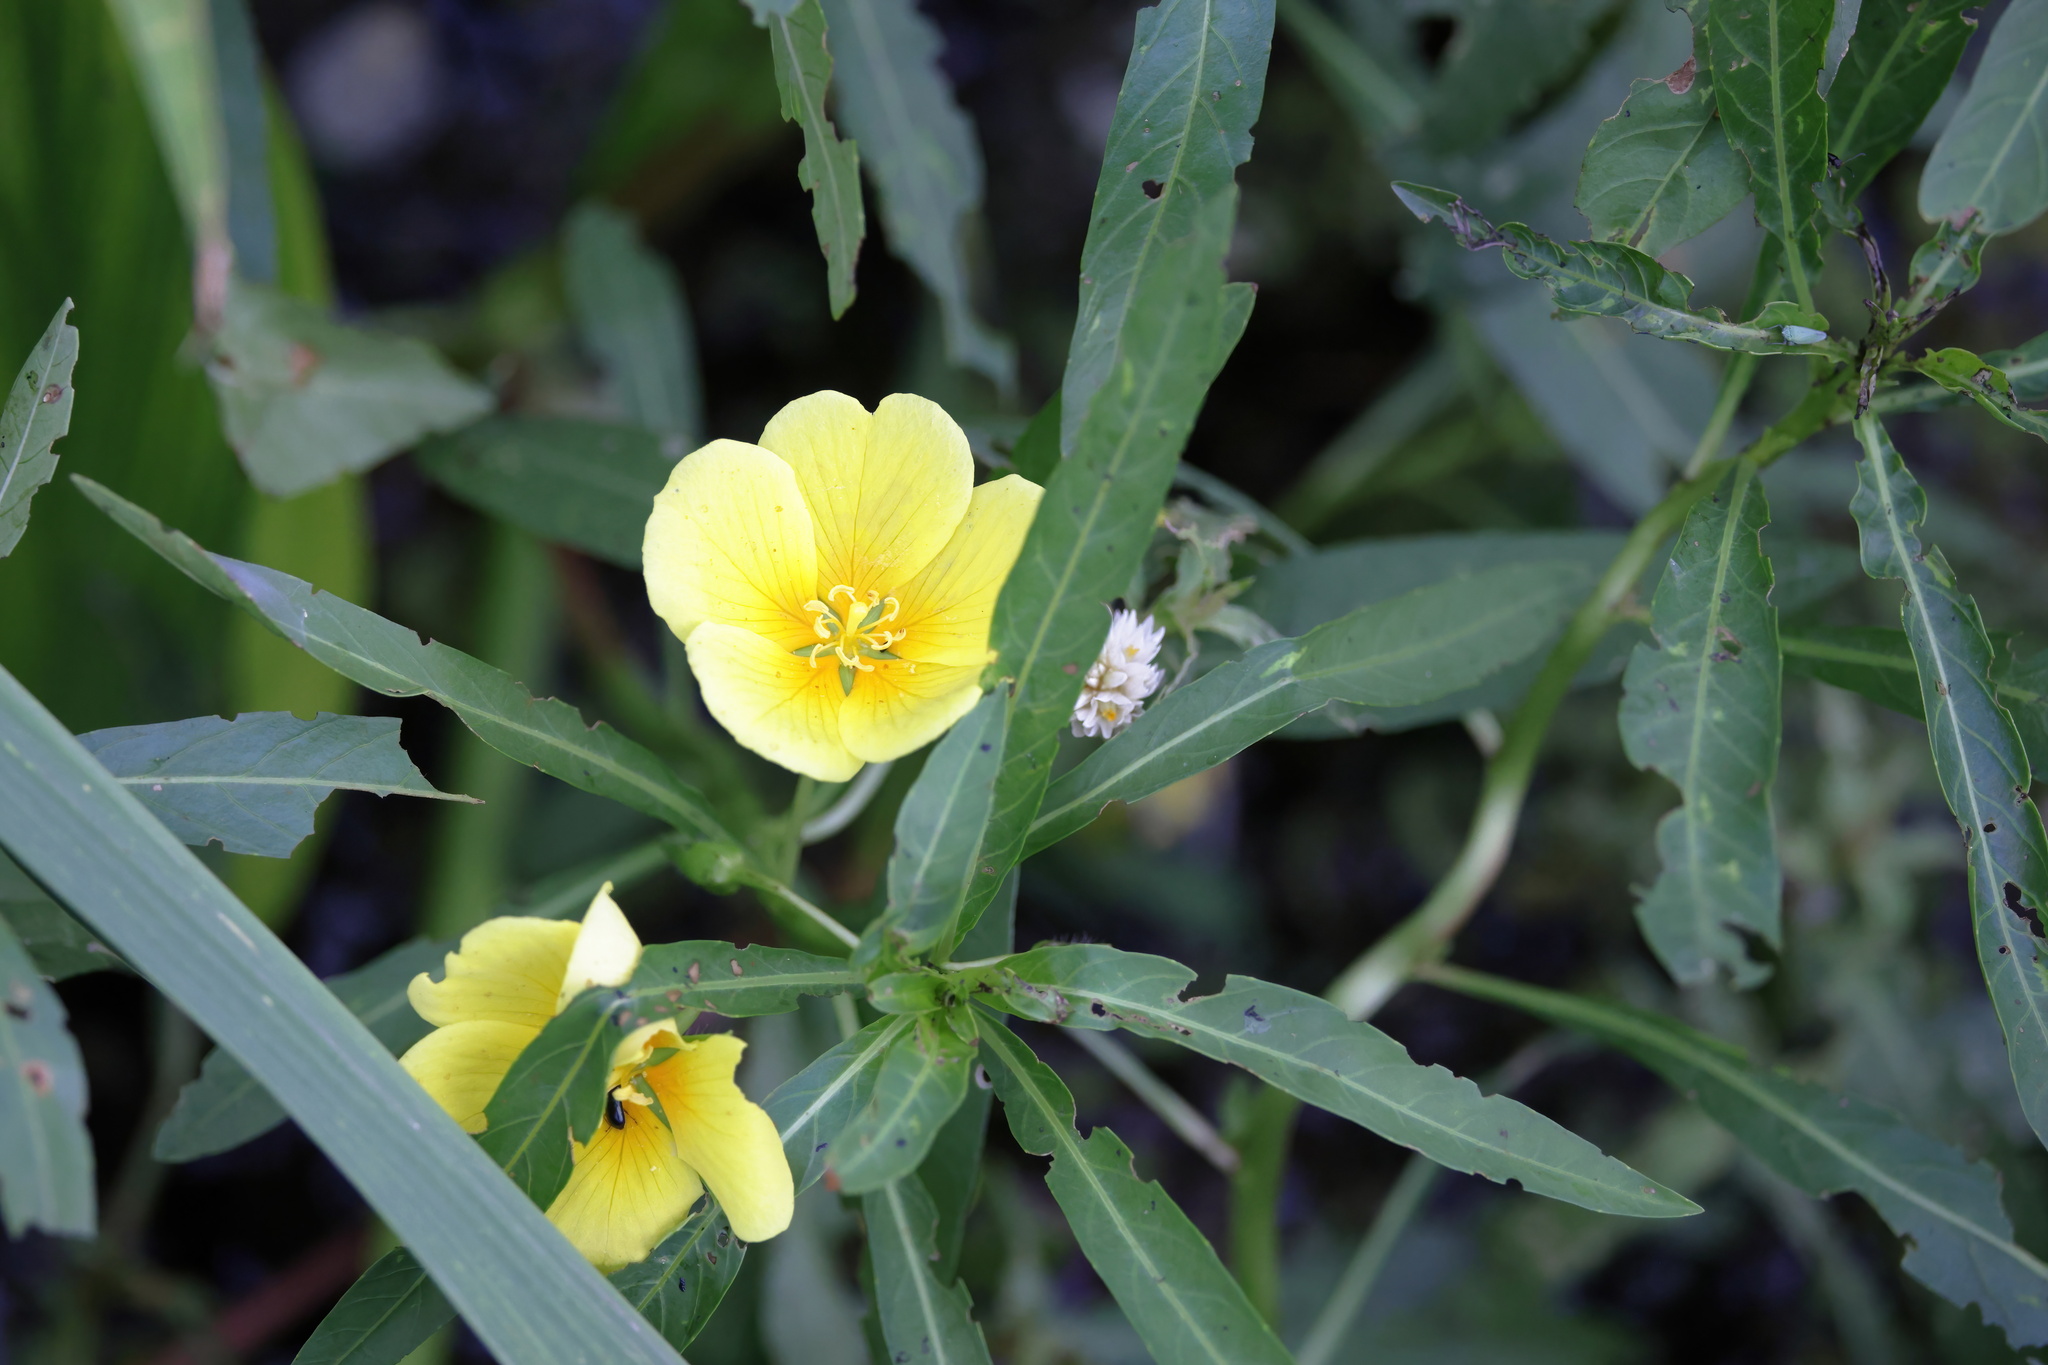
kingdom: Plantae
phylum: Tracheophyta
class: Magnoliopsida
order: Myrtales
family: Onagraceae
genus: Ludwigia
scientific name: Ludwigia peploides
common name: Floating primrose-willow
